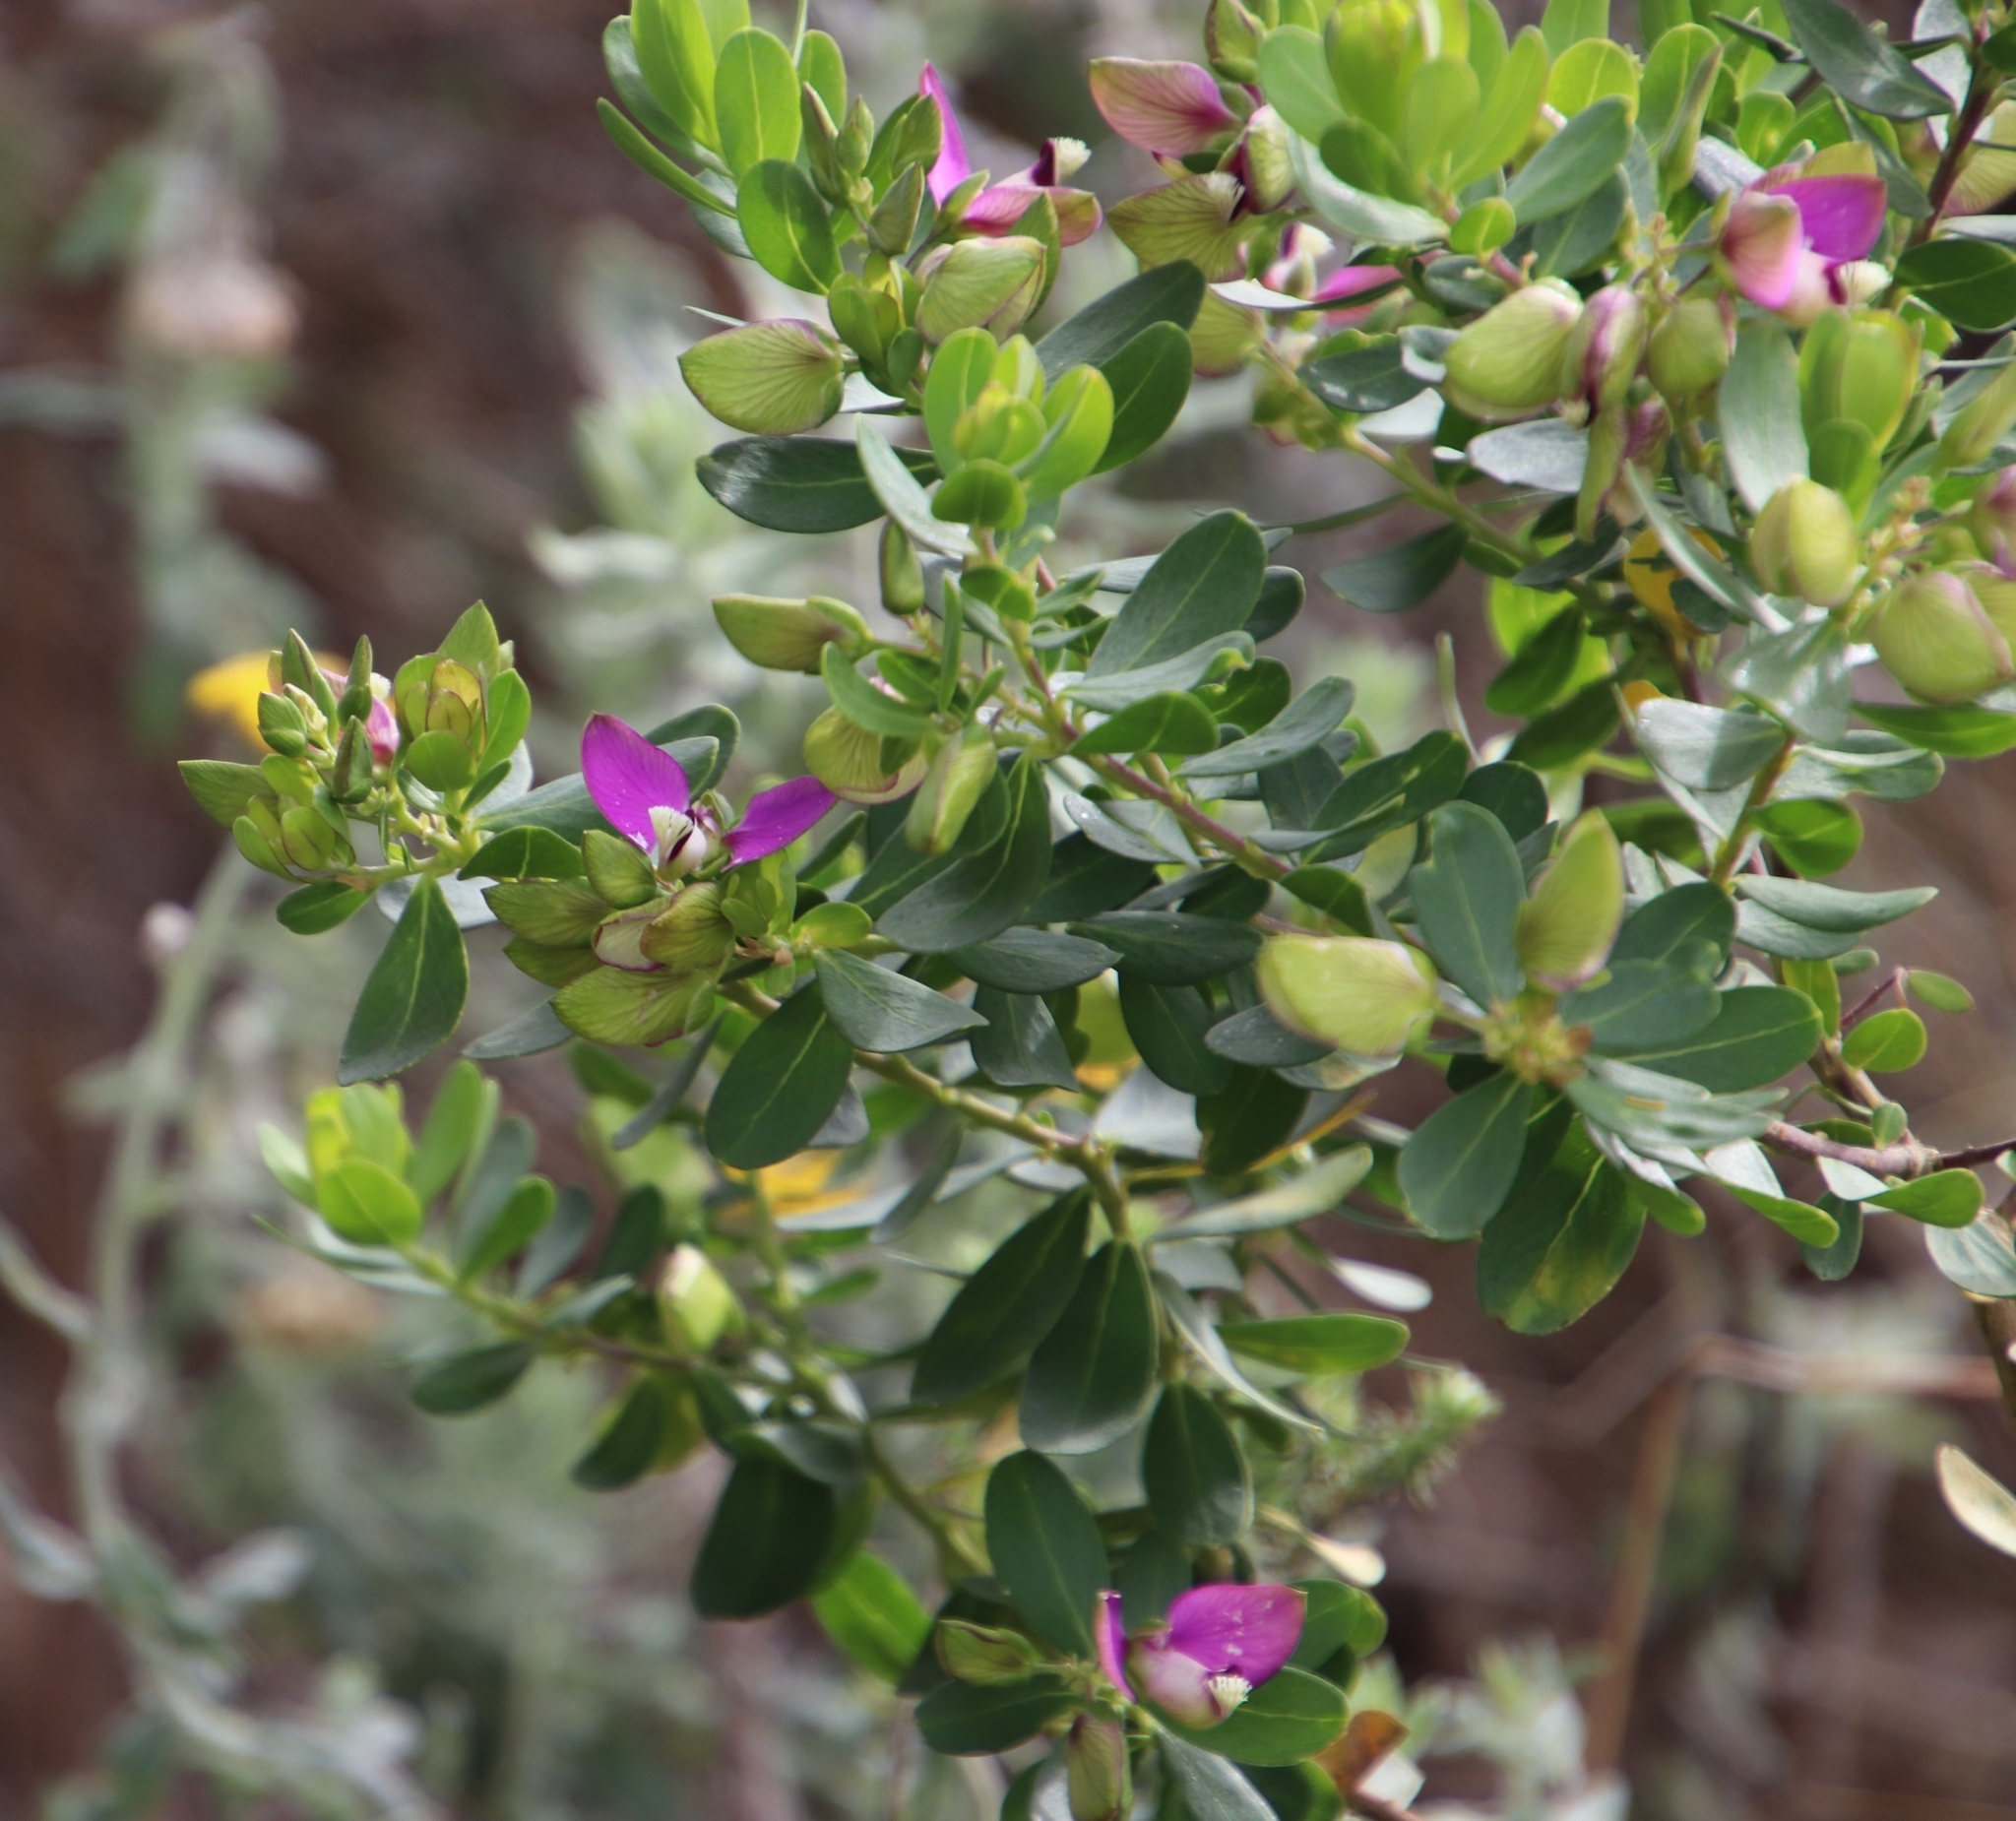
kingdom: Plantae
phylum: Tracheophyta
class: Magnoliopsida
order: Fabales
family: Polygalaceae
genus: Polygala
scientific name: Polygala myrtifolia
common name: Myrtle-leaf milkwort
